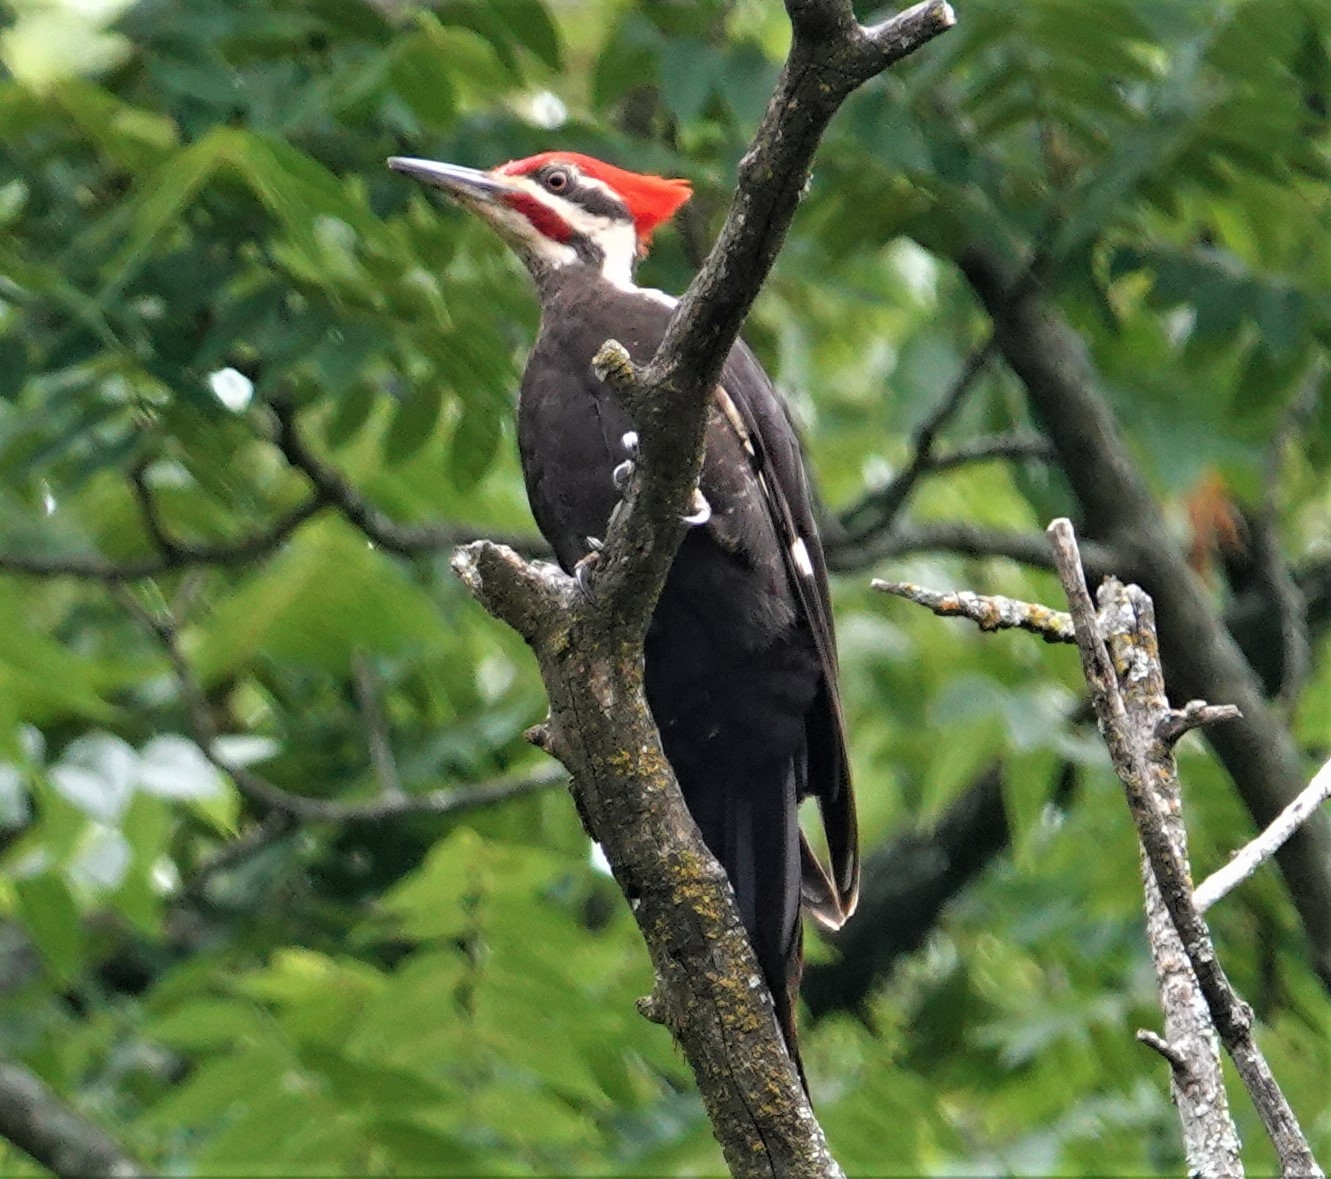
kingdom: Animalia
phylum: Chordata
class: Aves
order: Piciformes
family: Picidae
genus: Dryocopus
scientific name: Dryocopus pileatus
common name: Pileated woodpecker
